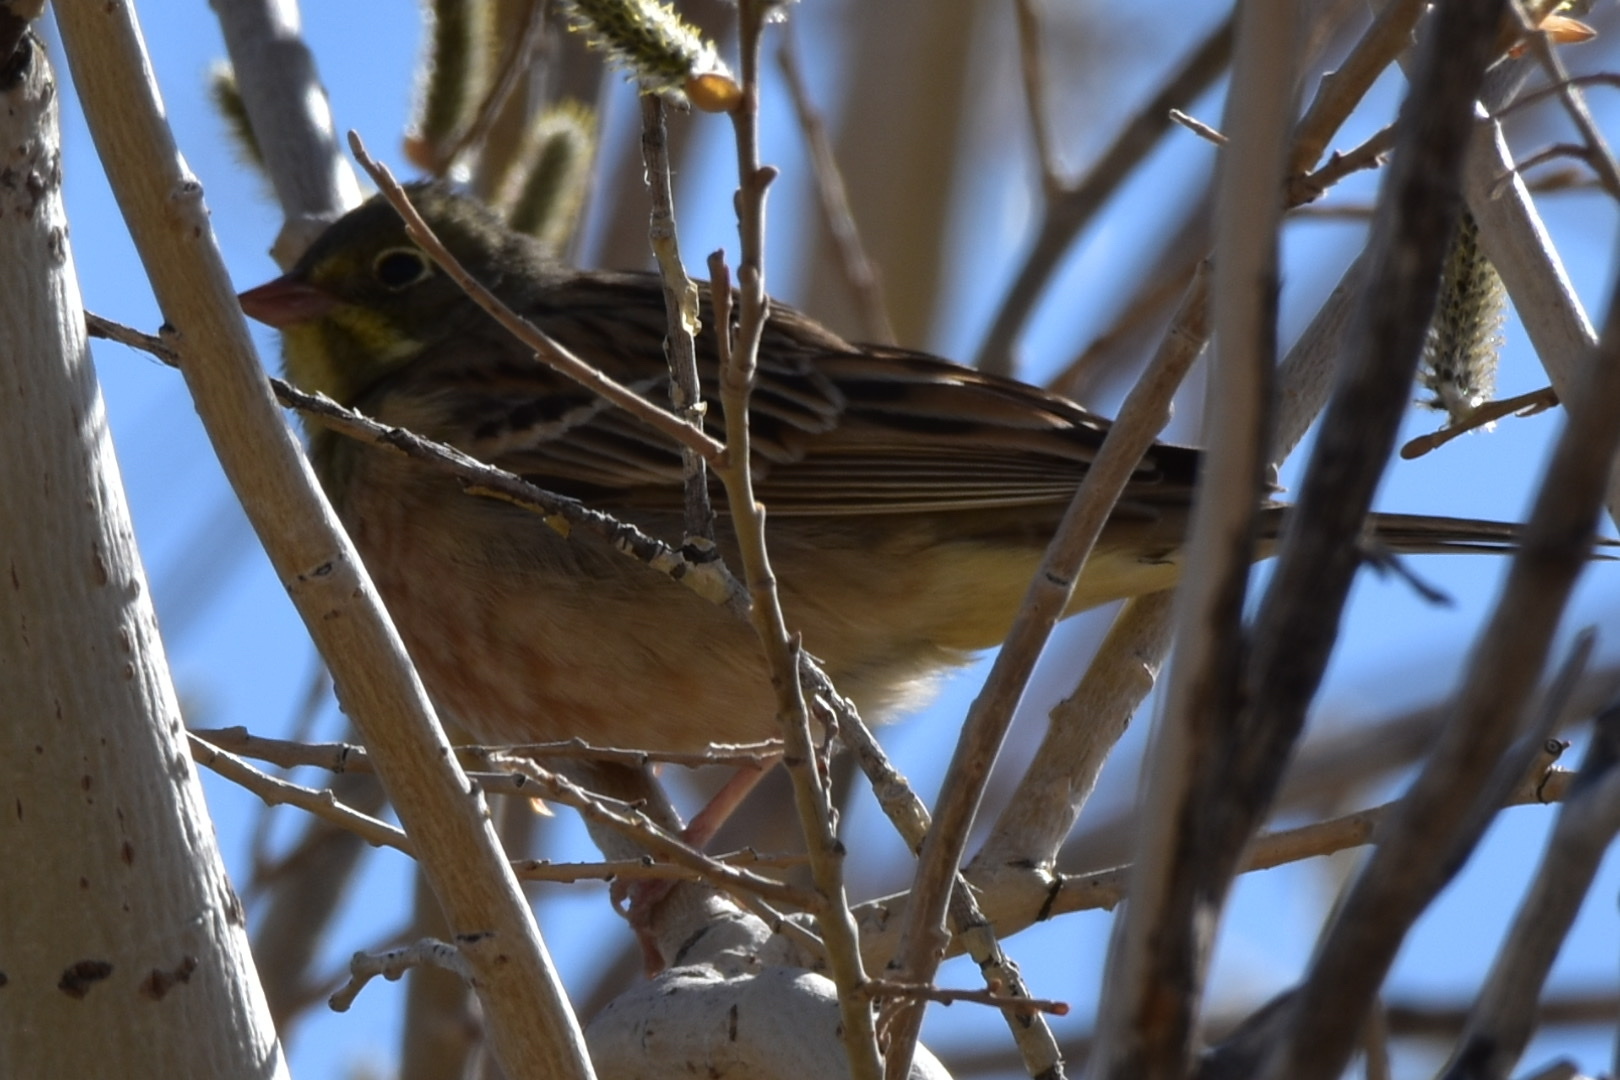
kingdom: Animalia
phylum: Chordata
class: Aves
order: Passeriformes
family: Emberizidae
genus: Emberiza
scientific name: Emberiza hortulana
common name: Ortolan bunting
